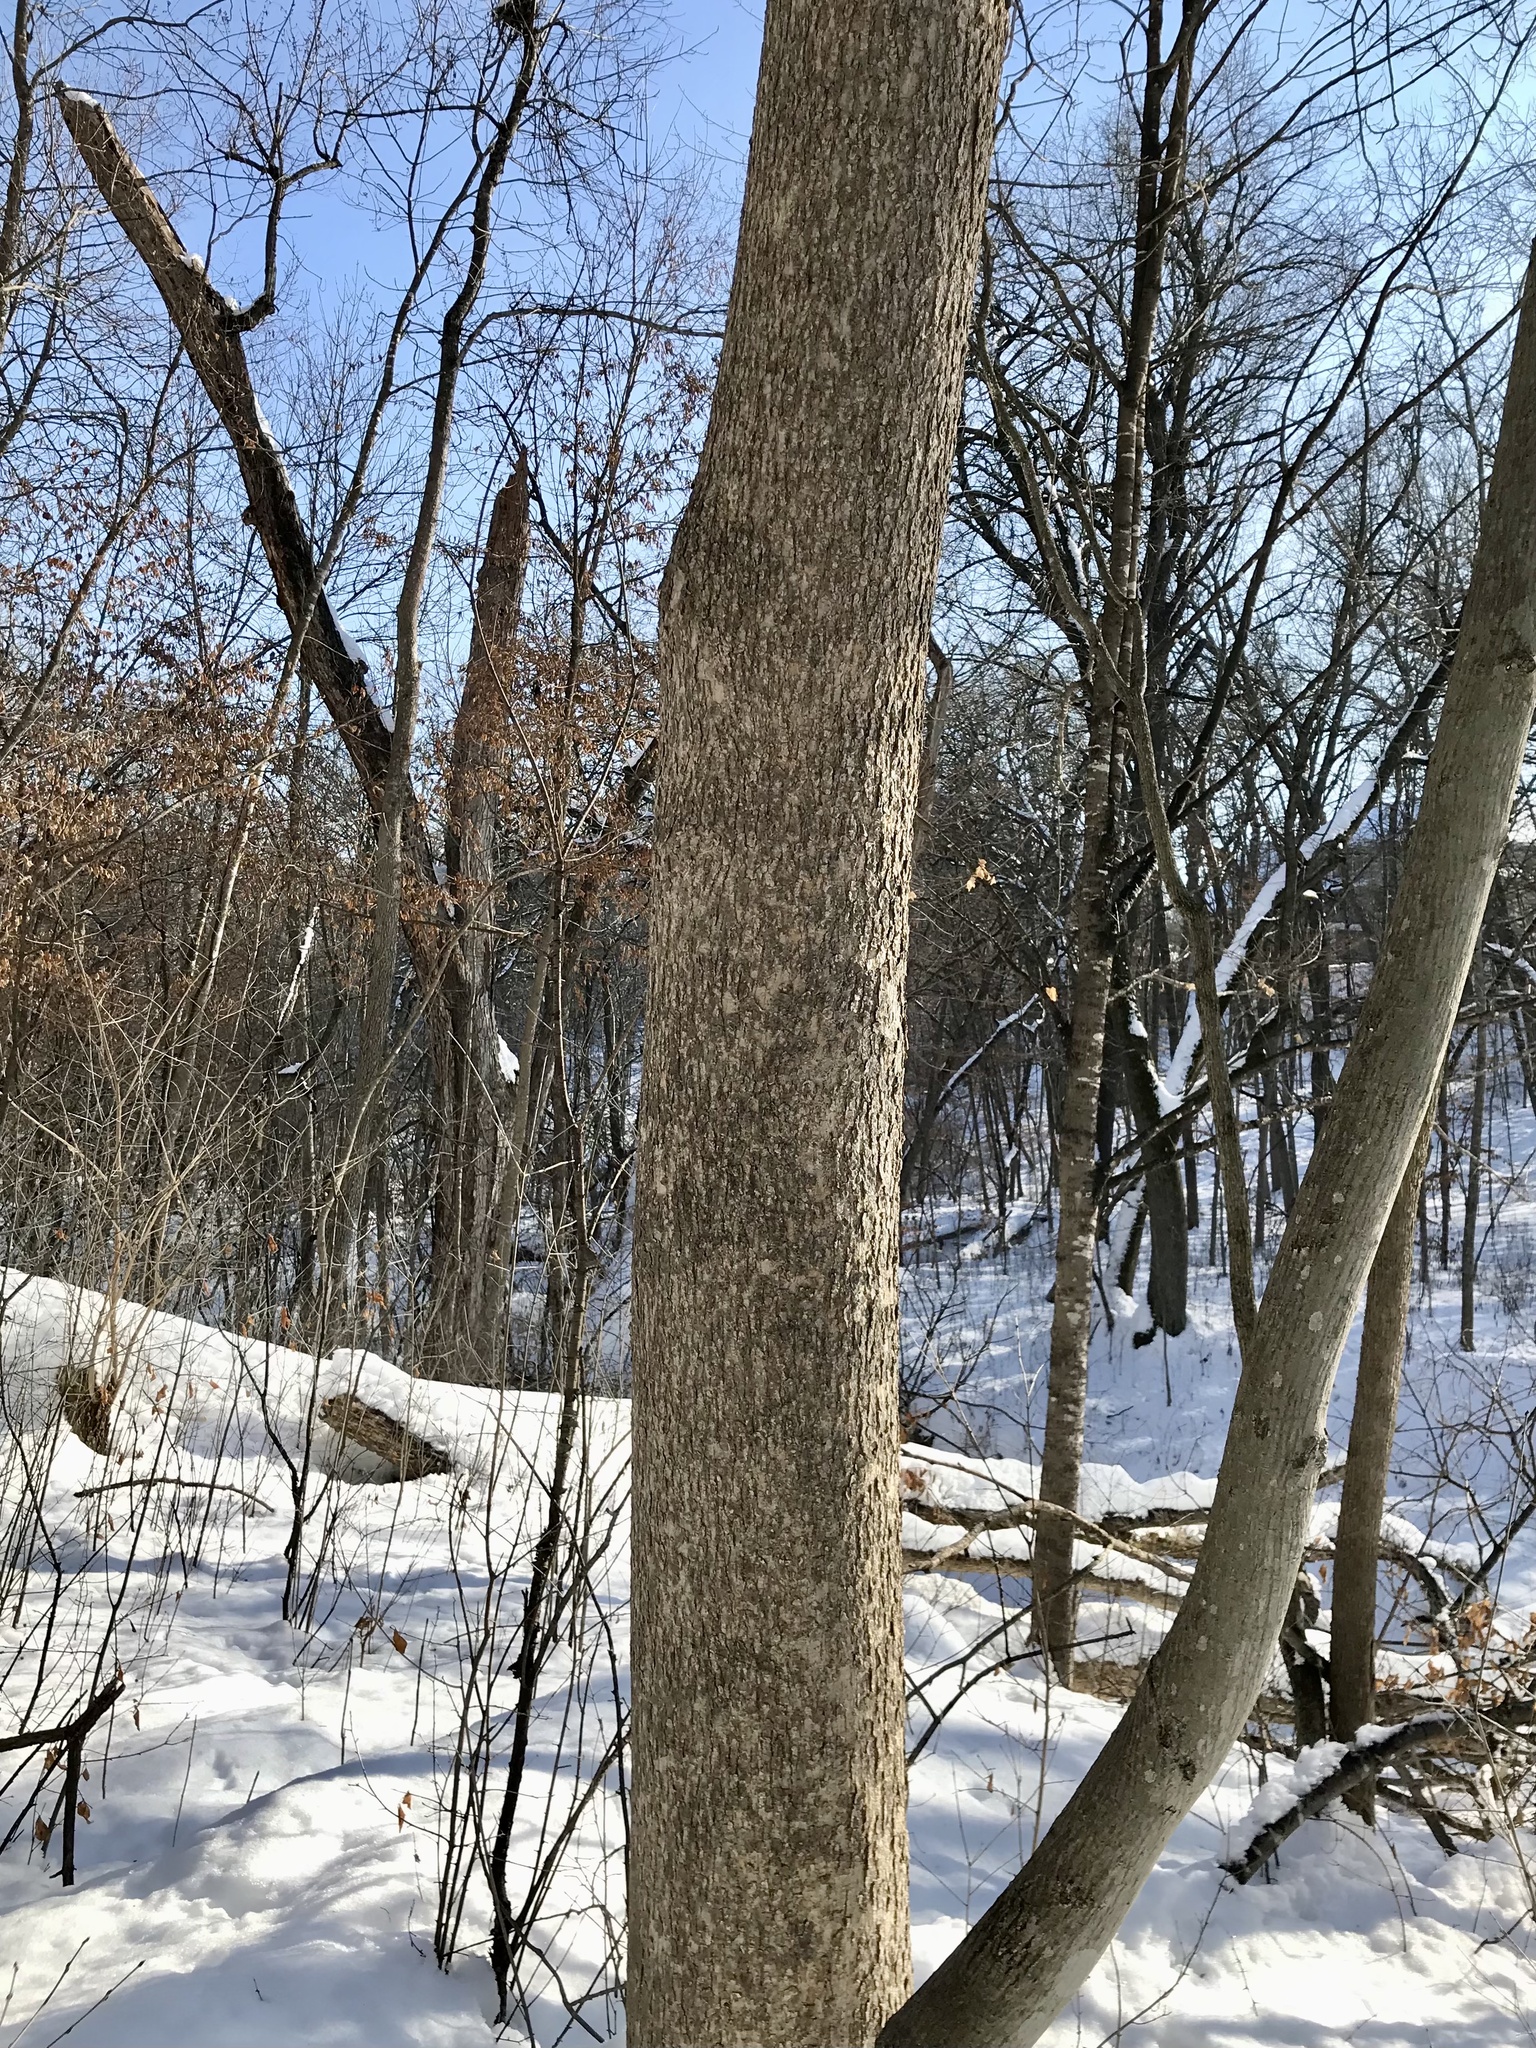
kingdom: Plantae
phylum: Tracheophyta
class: Magnoliopsida
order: Lamiales
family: Oleaceae
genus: Fraxinus
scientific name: Fraxinus nigra
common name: Black ash
